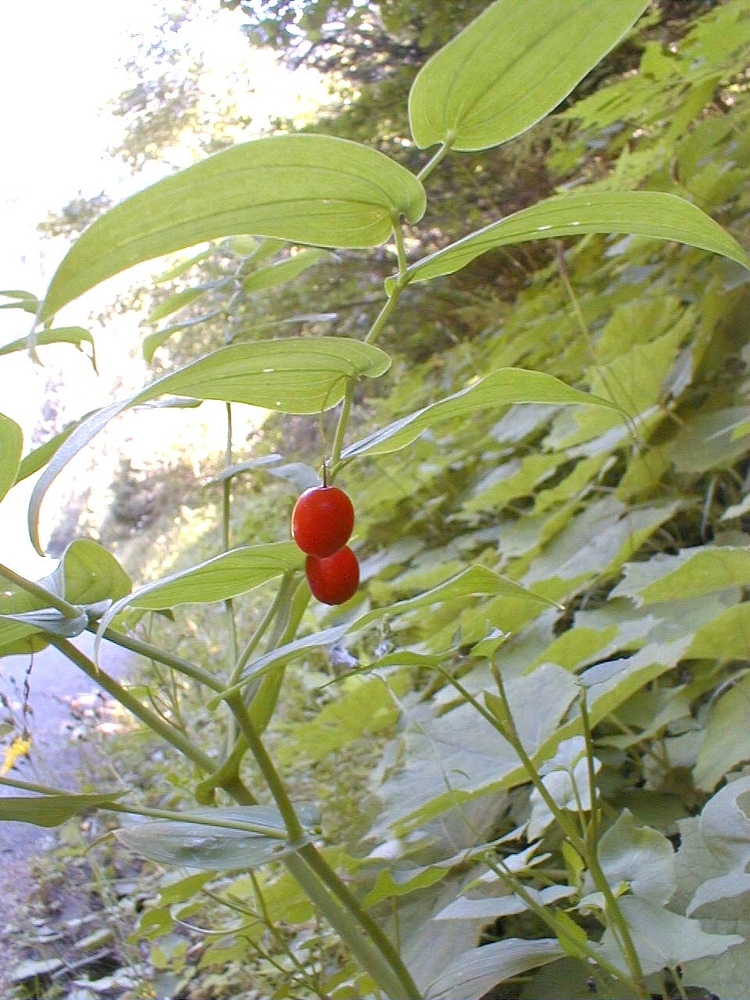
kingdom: Plantae
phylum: Tracheophyta
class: Liliopsida
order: Liliales
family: Liliaceae
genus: Streptopus
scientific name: Streptopus amplexifolius
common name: Clasp twisted stalk
